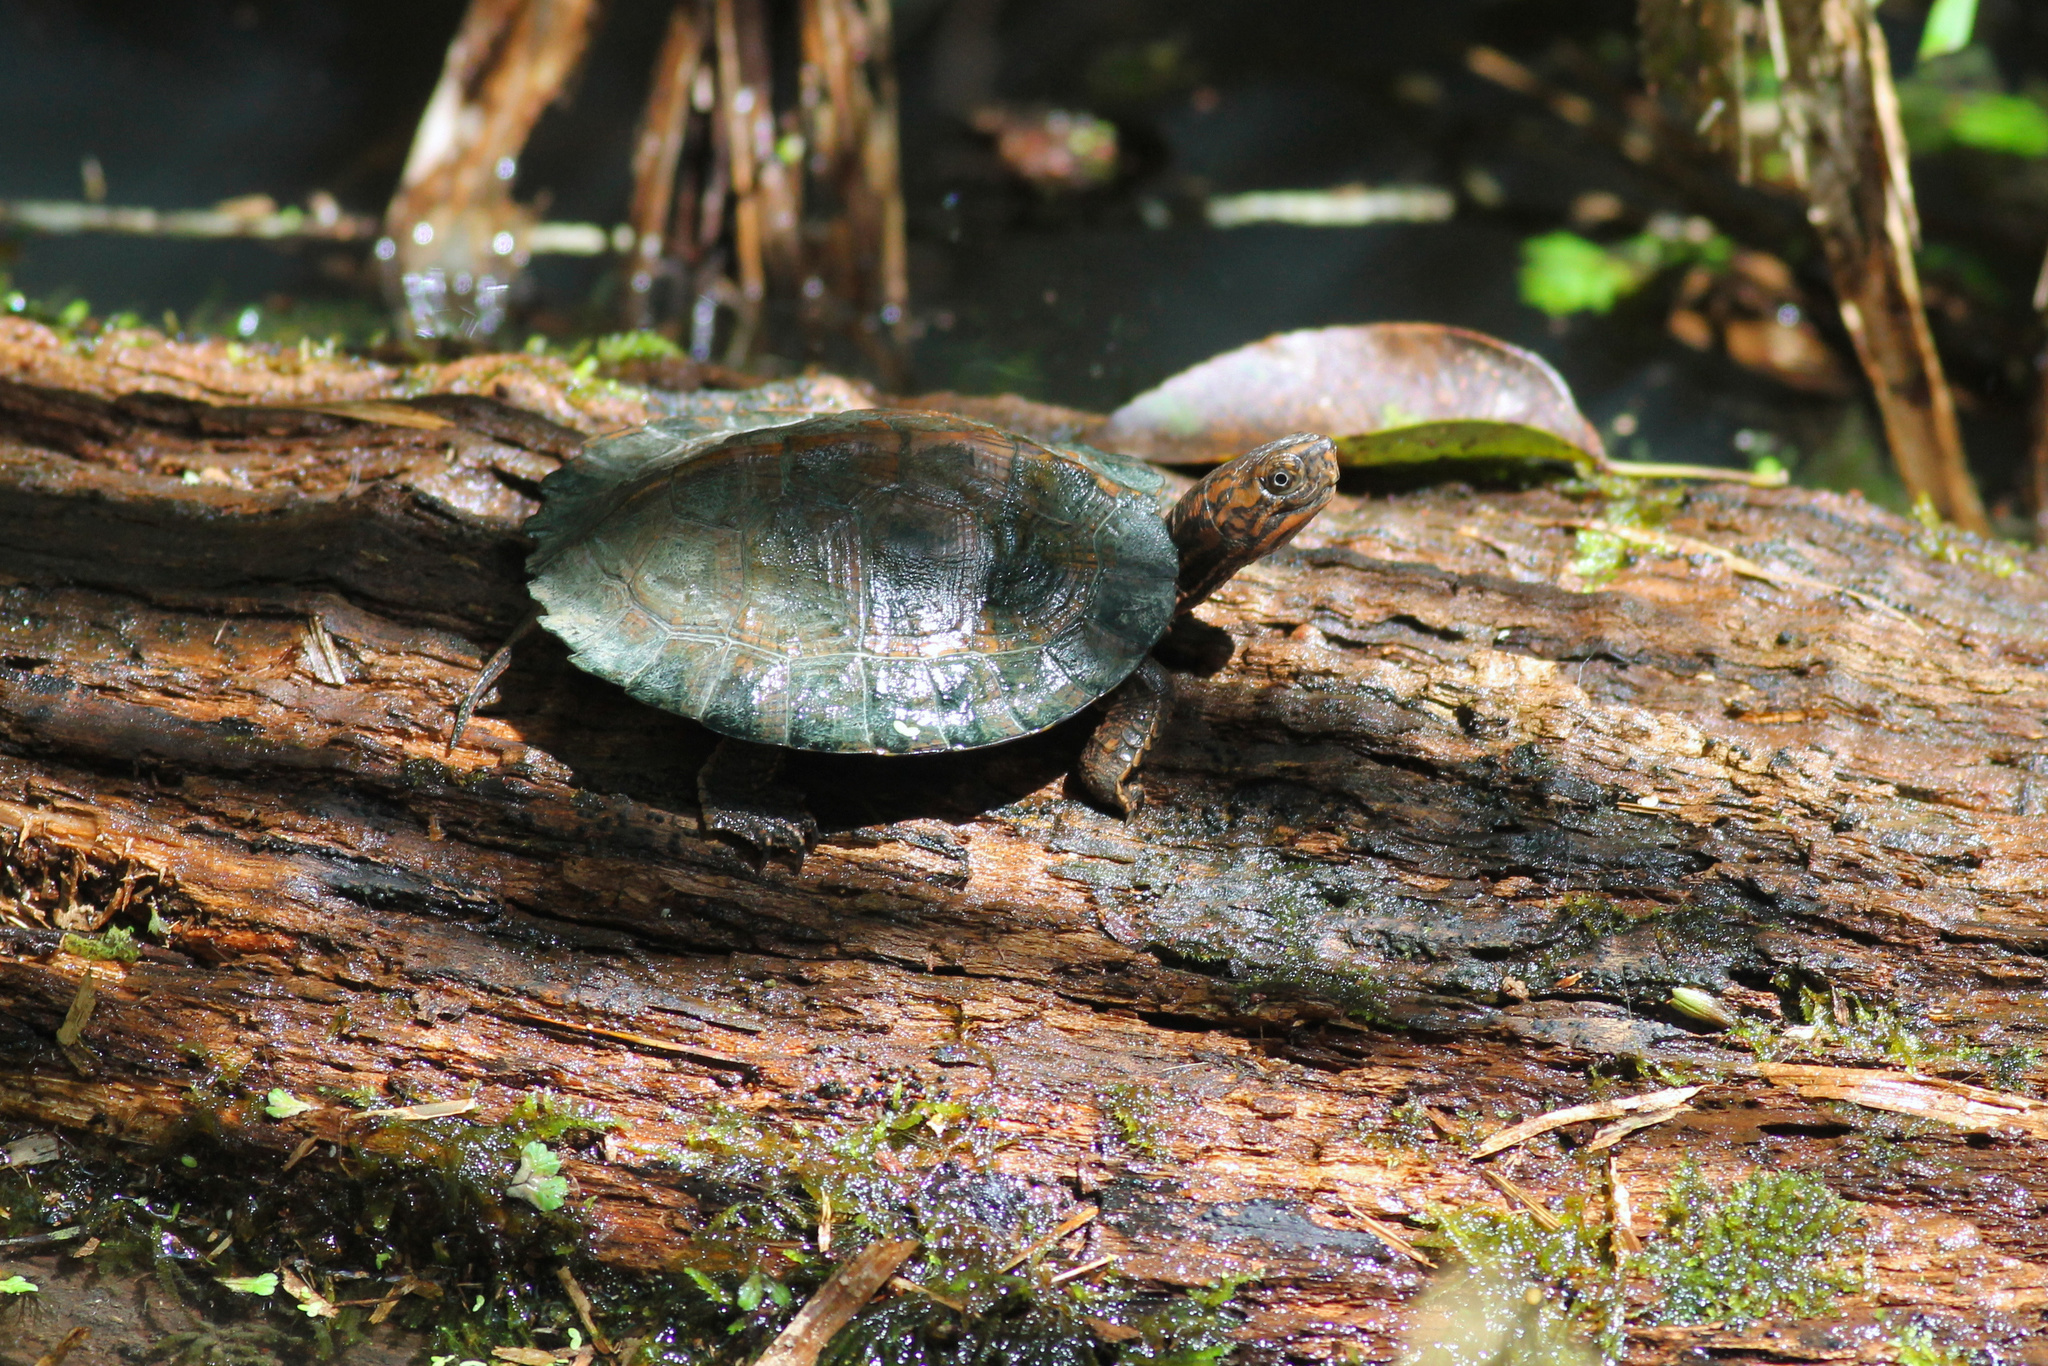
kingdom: Animalia
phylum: Chordata
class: Testudines
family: Geoemydidae
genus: Cyclemys
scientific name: Cyclemys oldhami
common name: (tcheponensis) stripeneck leaf turtle
